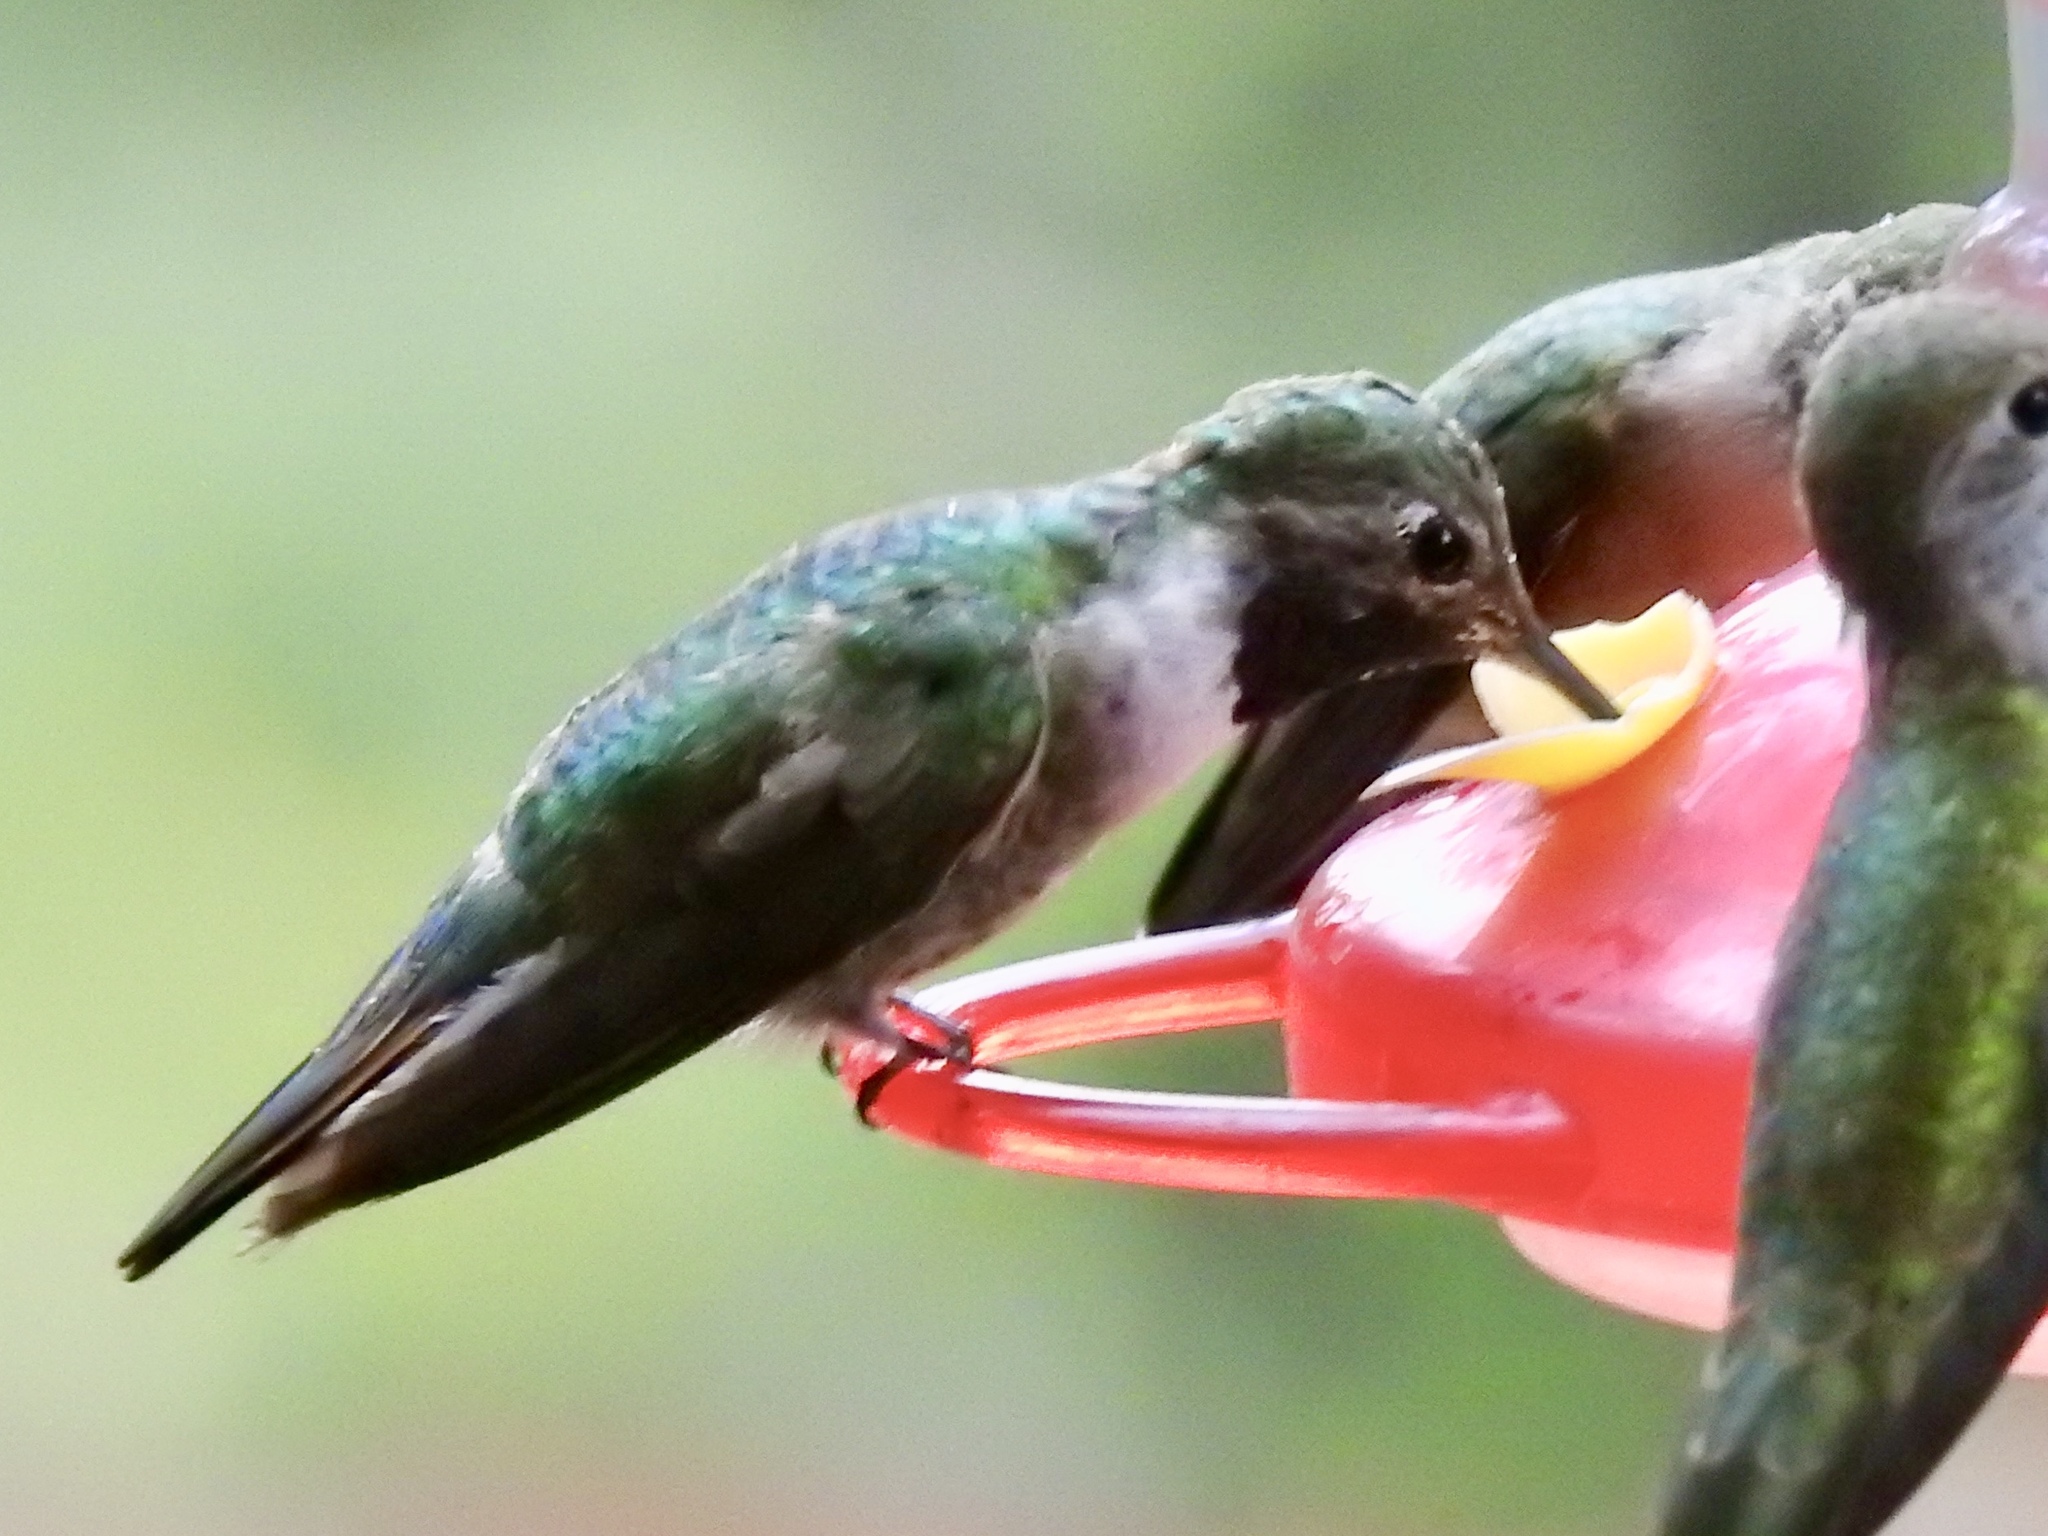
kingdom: Animalia
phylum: Chordata
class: Aves
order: Apodiformes
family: Trochilidae
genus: Selasphorus
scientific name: Selasphorus platycercus
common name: Broad-tailed hummingbird
